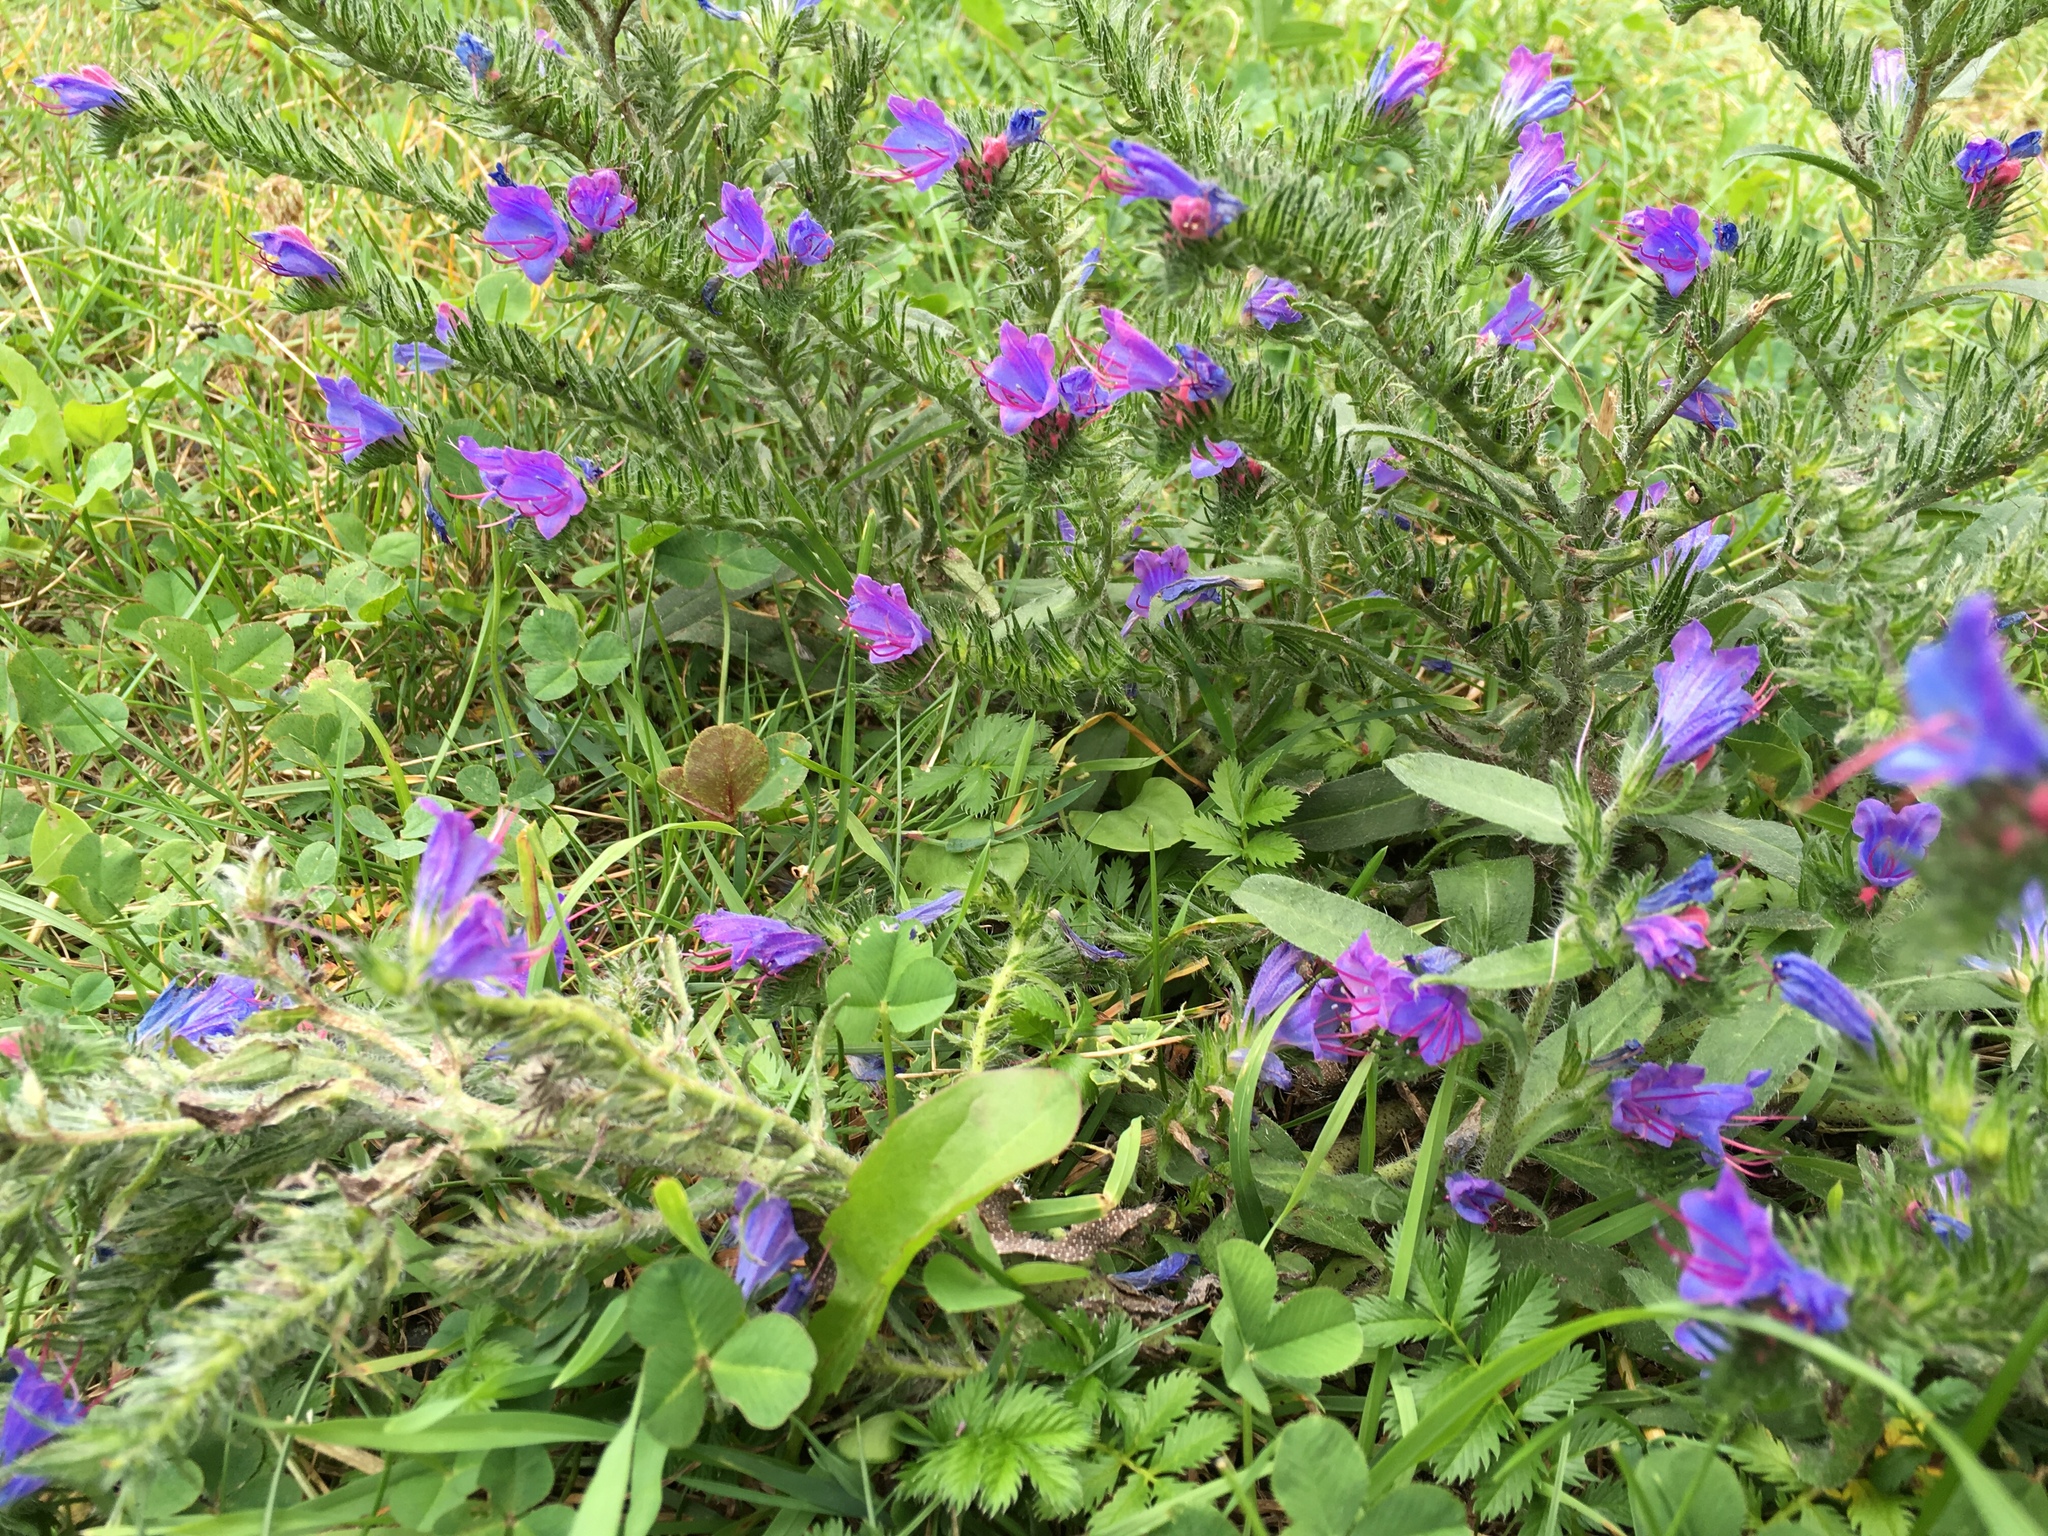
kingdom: Plantae
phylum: Tracheophyta
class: Magnoliopsida
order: Boraginales
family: Boraginaceae
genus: Echium
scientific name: Echium vulgare
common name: Common viper's bugloss
